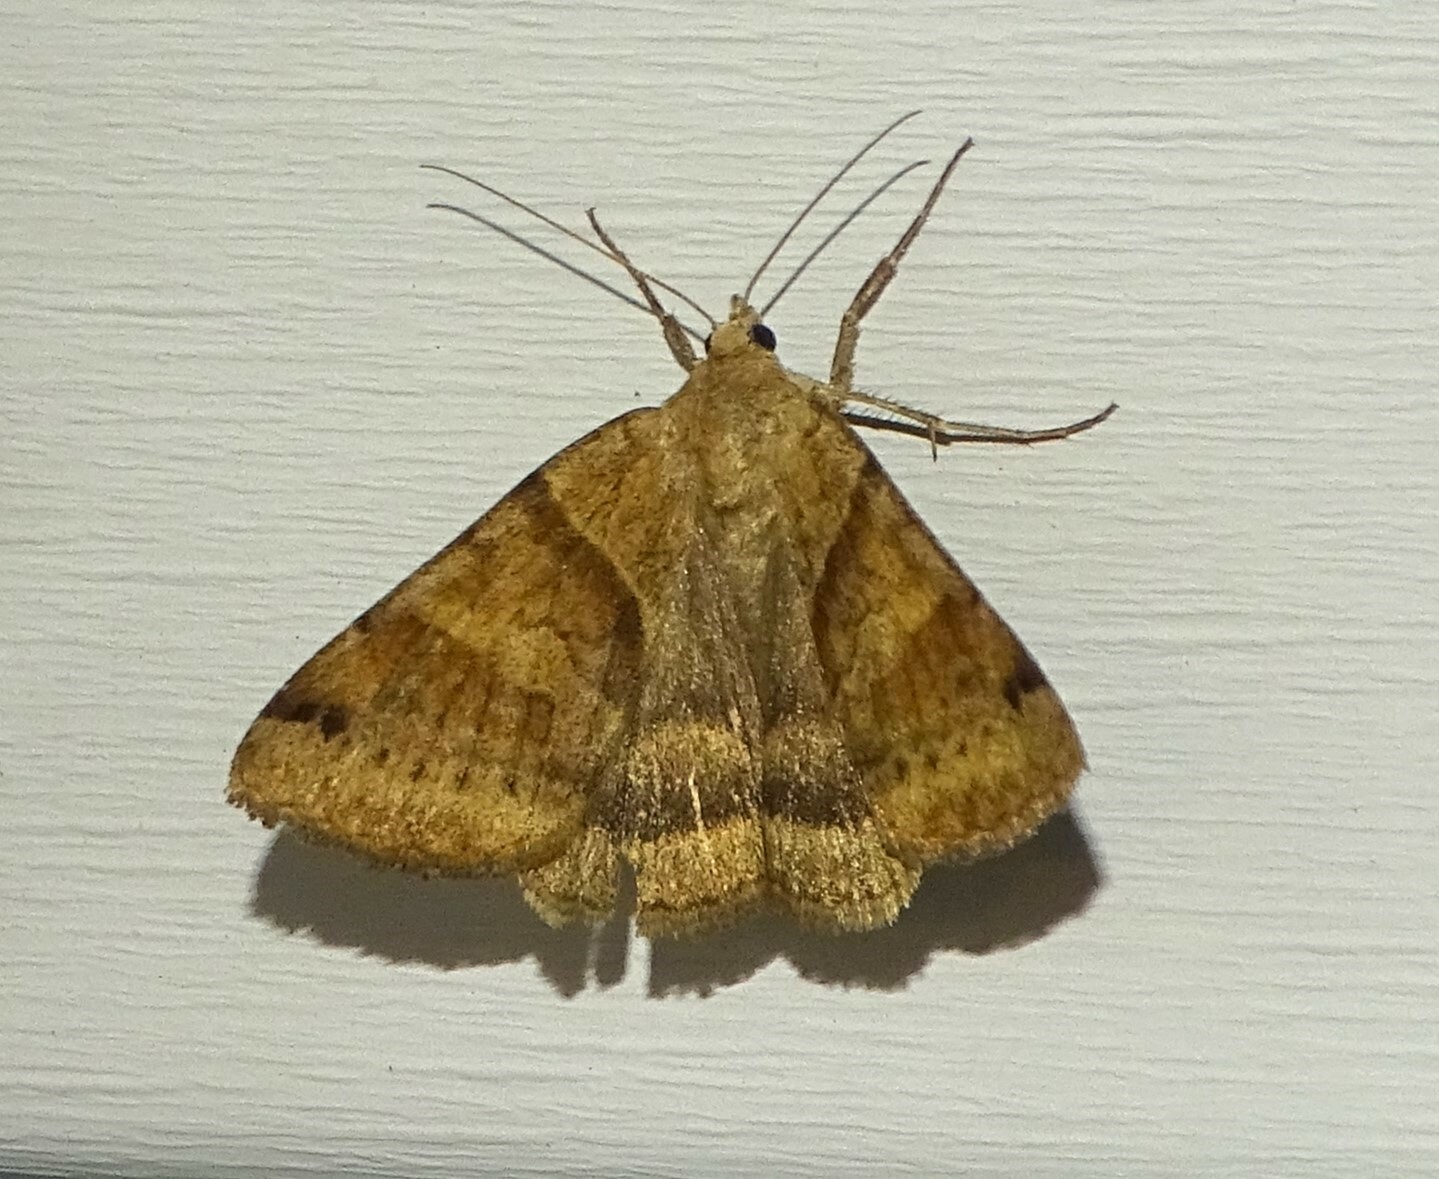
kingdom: Animalia
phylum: Arthropoda
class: Insecta
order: Lepidoptera
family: Erebidae
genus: Caenurgina
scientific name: Caenurgina crassiuscula
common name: Double-barred
